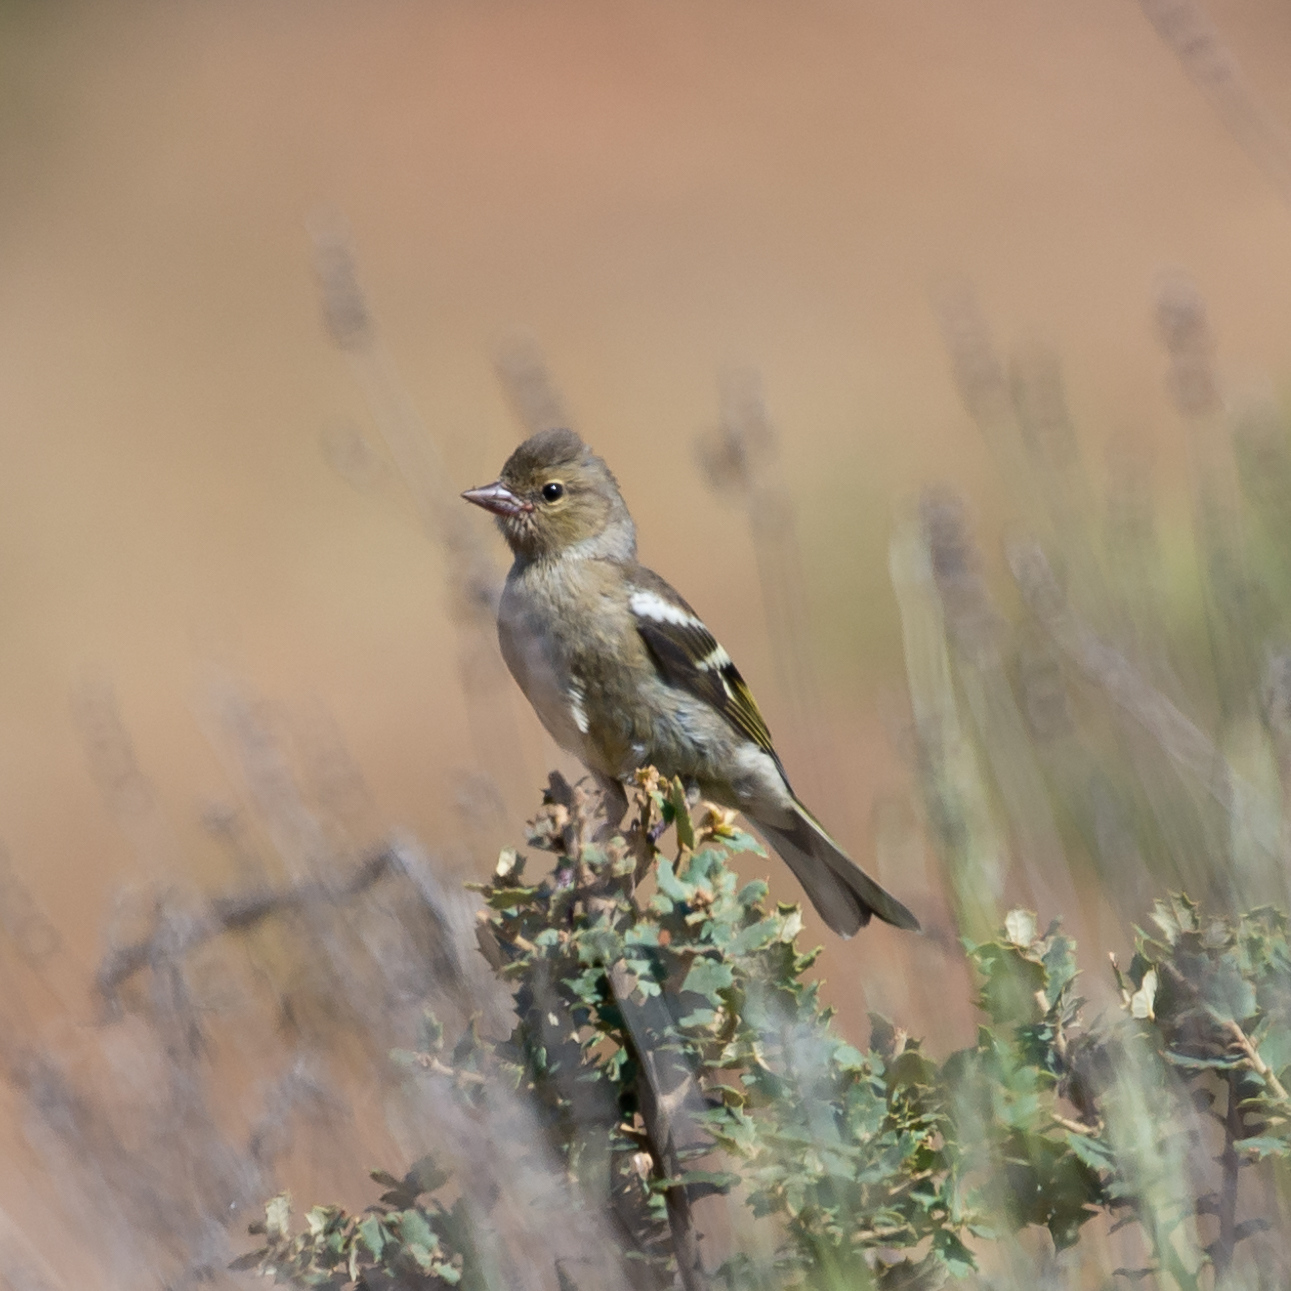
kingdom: Animalia
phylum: Chordata
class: Aves
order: Passeriformes
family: Fringillidae
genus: Fringilla
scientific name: Fringilla coelebs
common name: Common chaffinch
